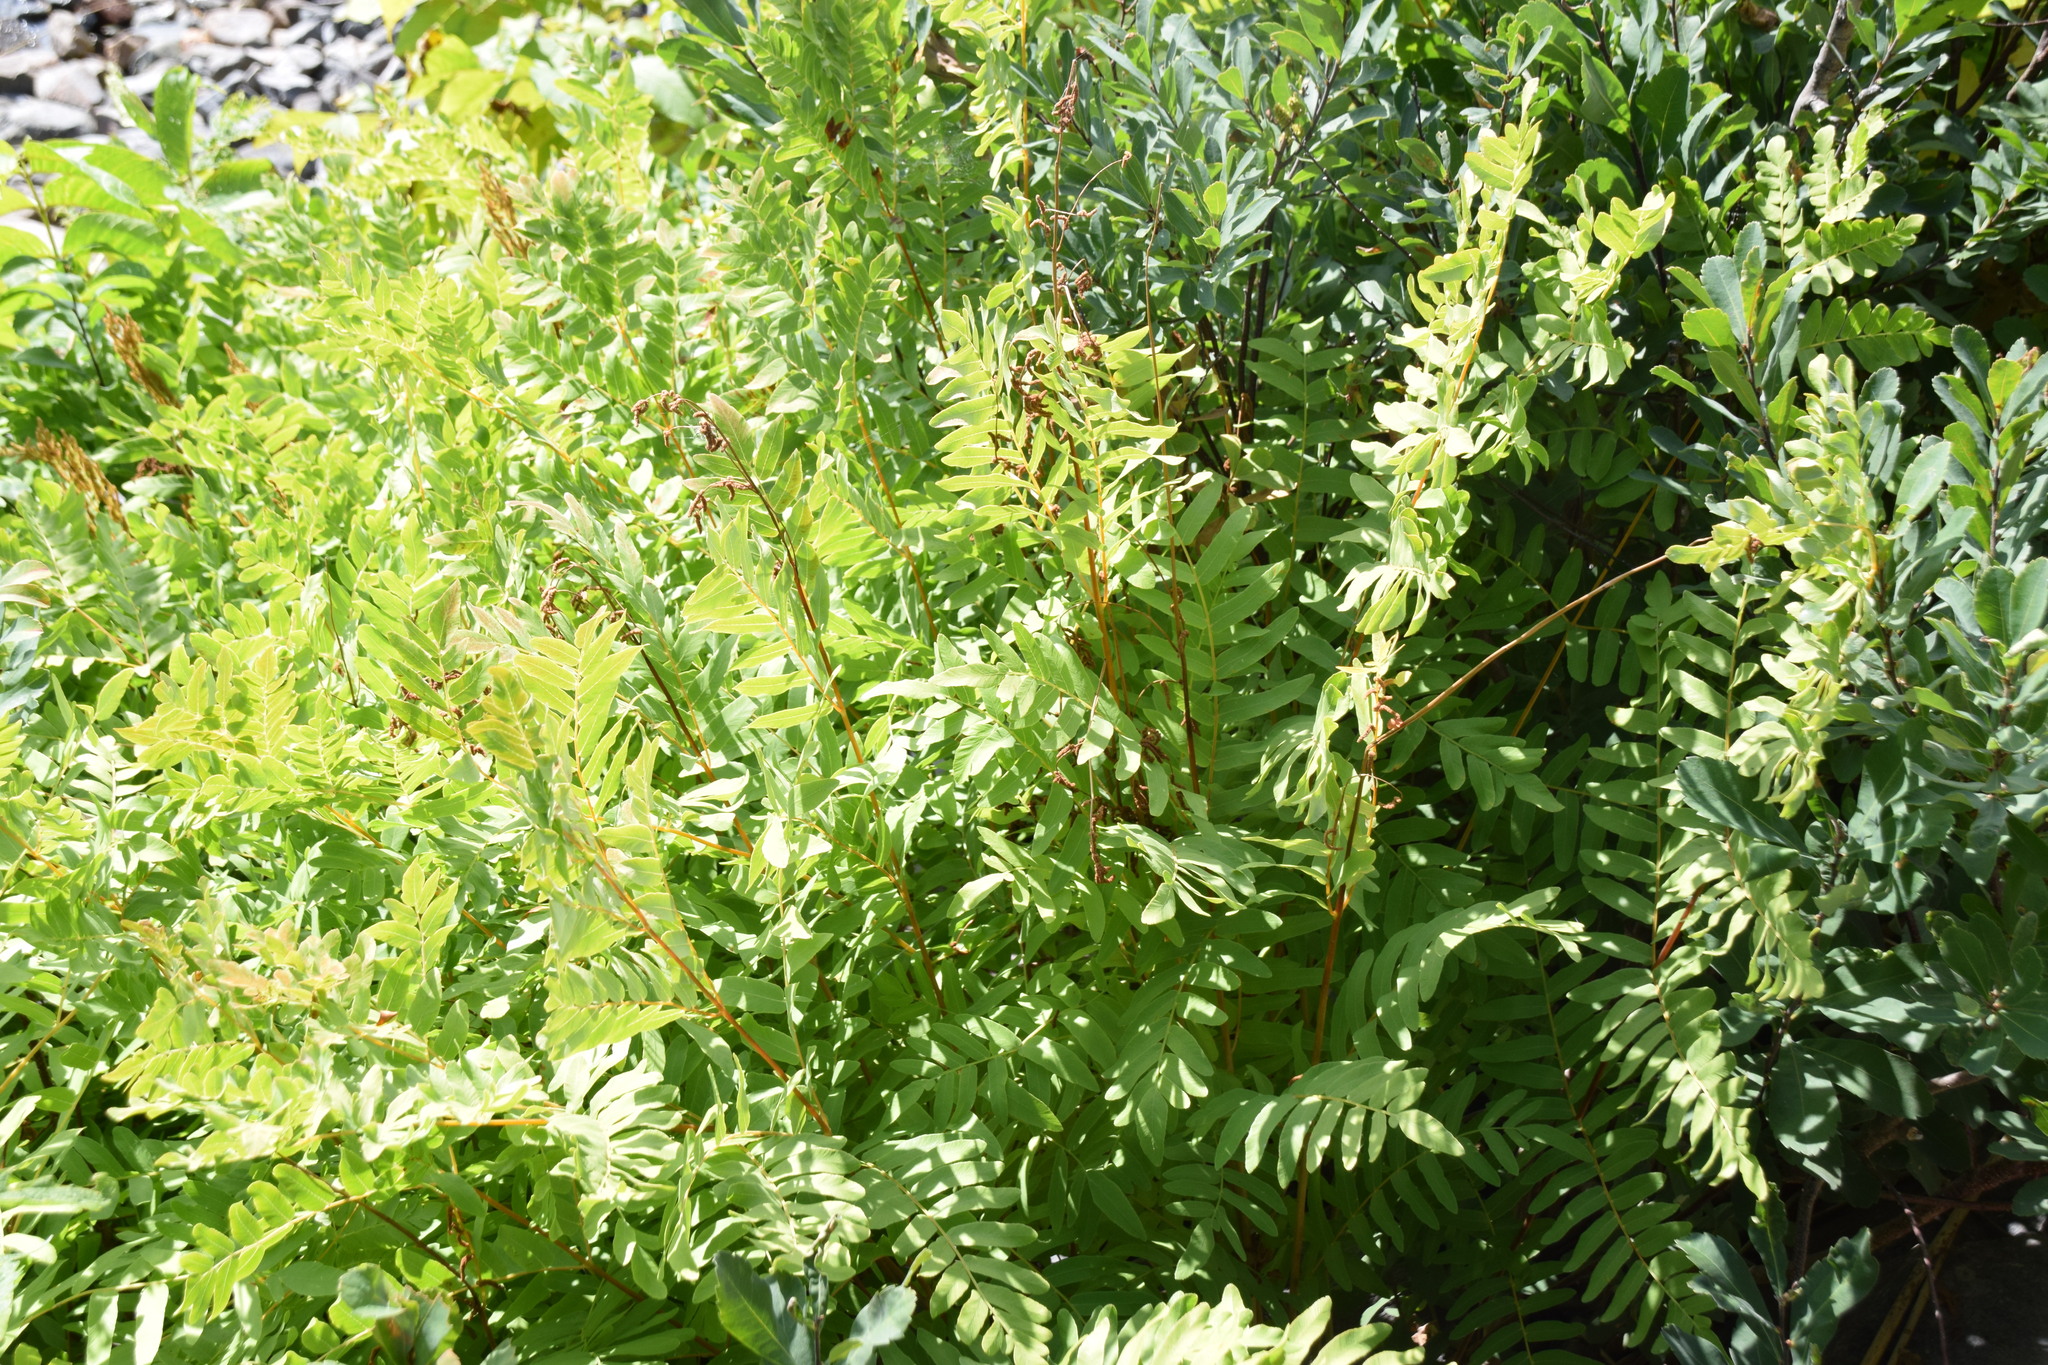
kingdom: Plantae
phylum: Tracheophyta
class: Polypodiopsida
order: Osmundales
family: Osmundaceae
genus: Osmunda
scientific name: Osmunda spectabilis
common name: American royal fern
